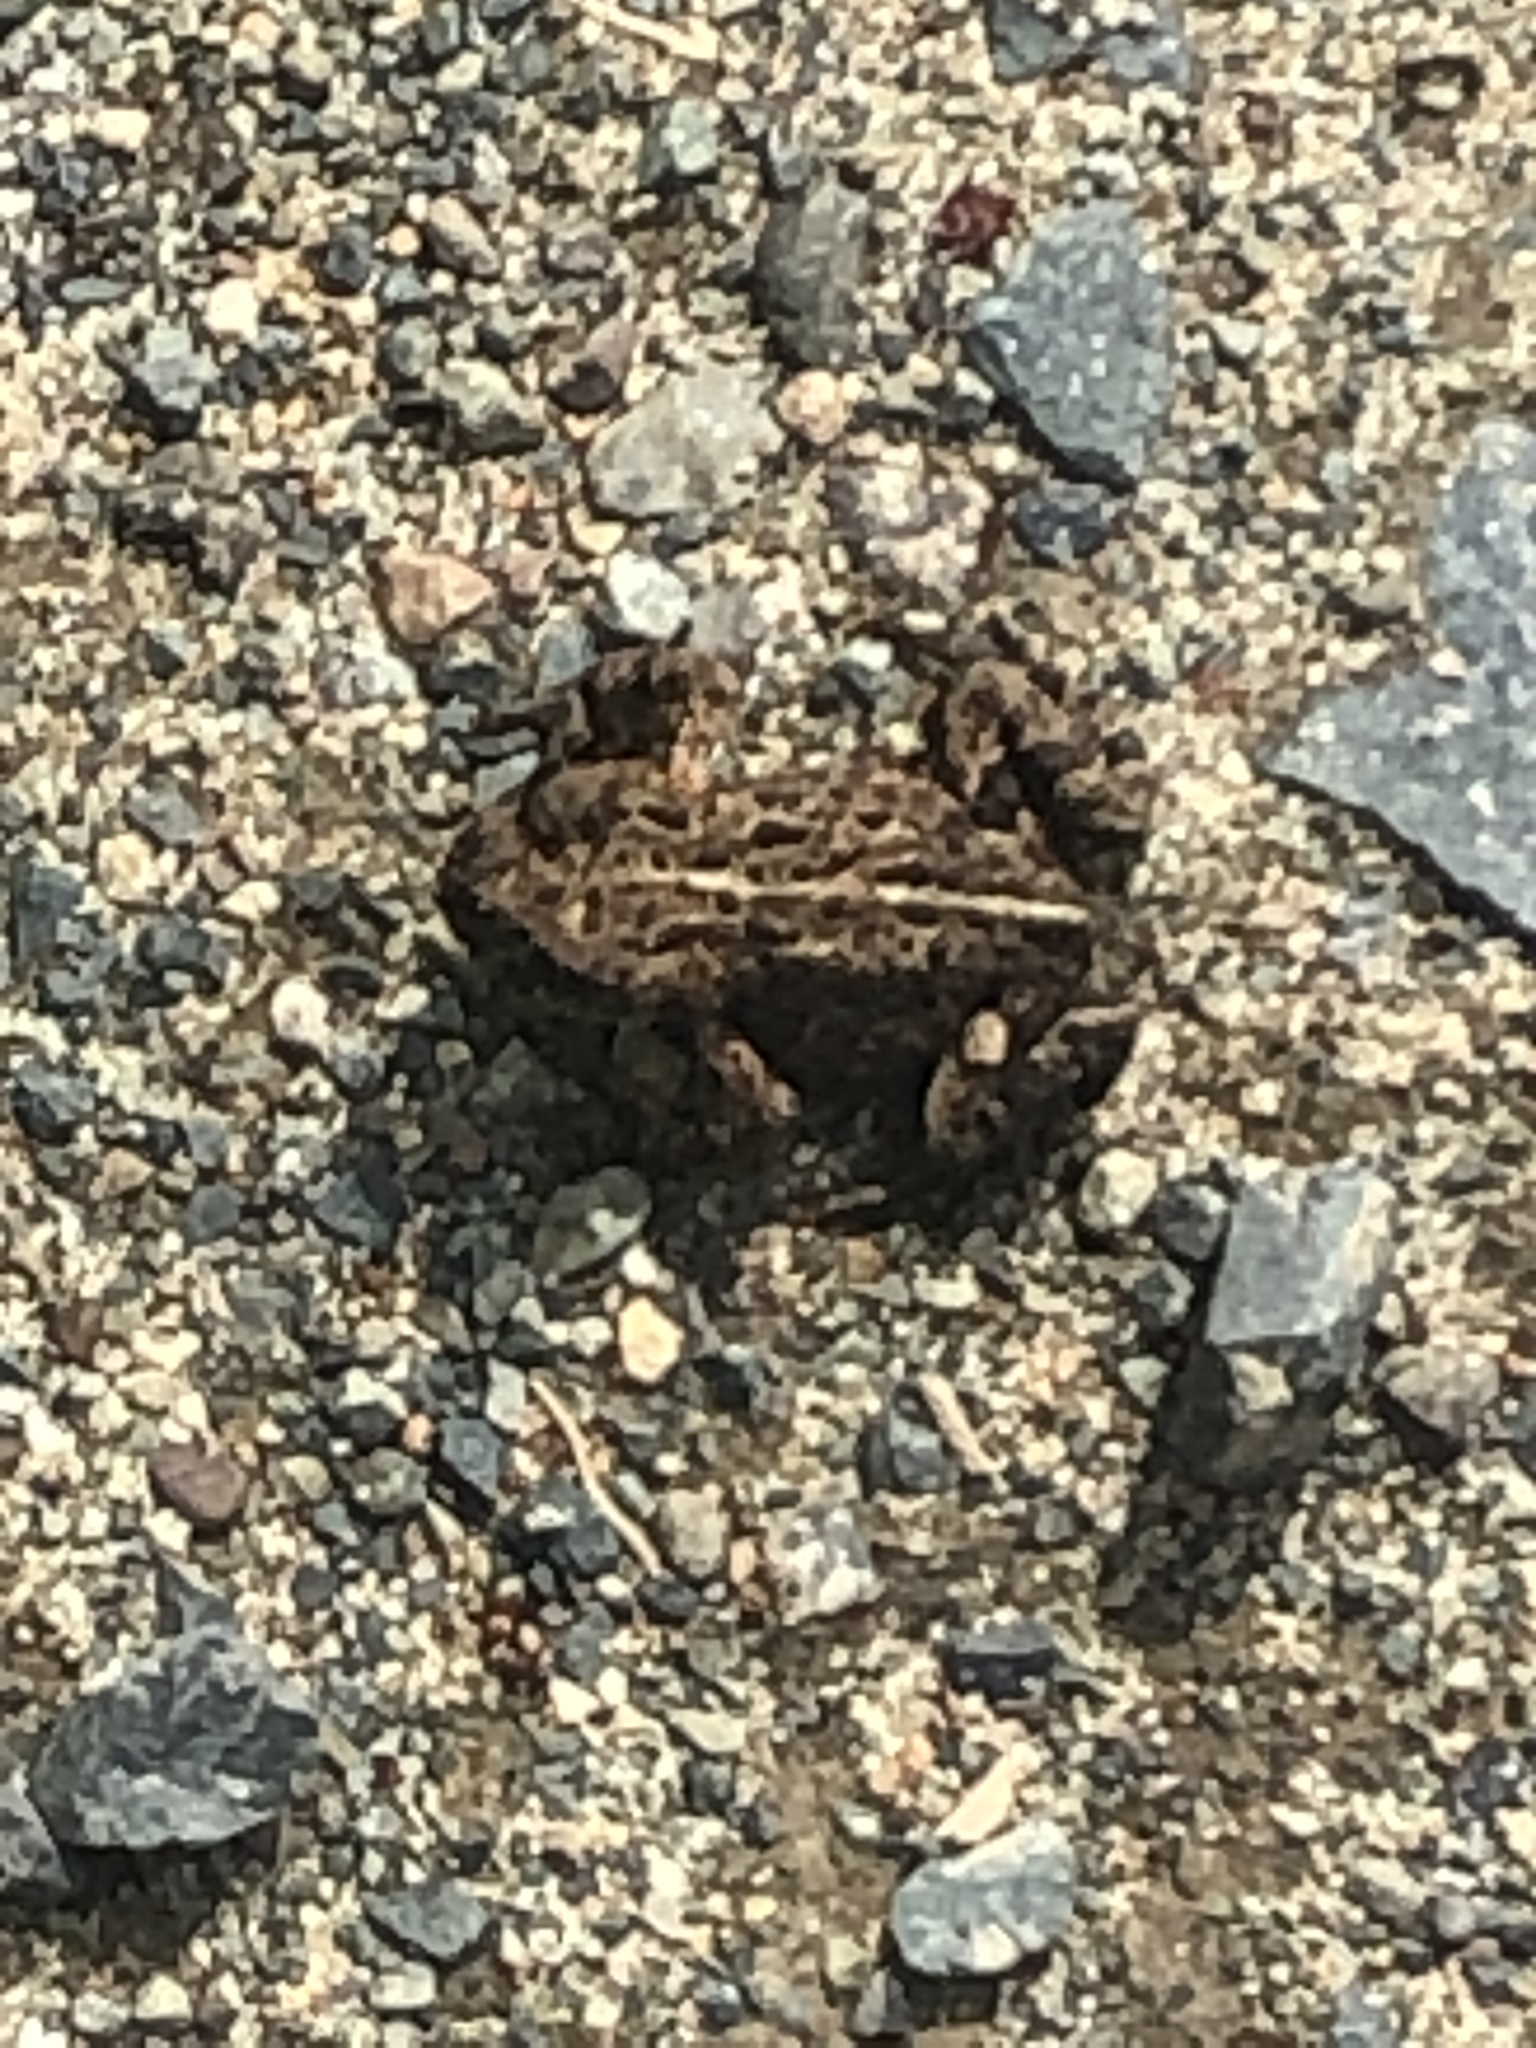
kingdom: Animalia
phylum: Chordata
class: Amphibia
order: Anura
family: Bufonidae
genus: Anaxyrus
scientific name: Anaxyrus boreas
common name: Western toad
